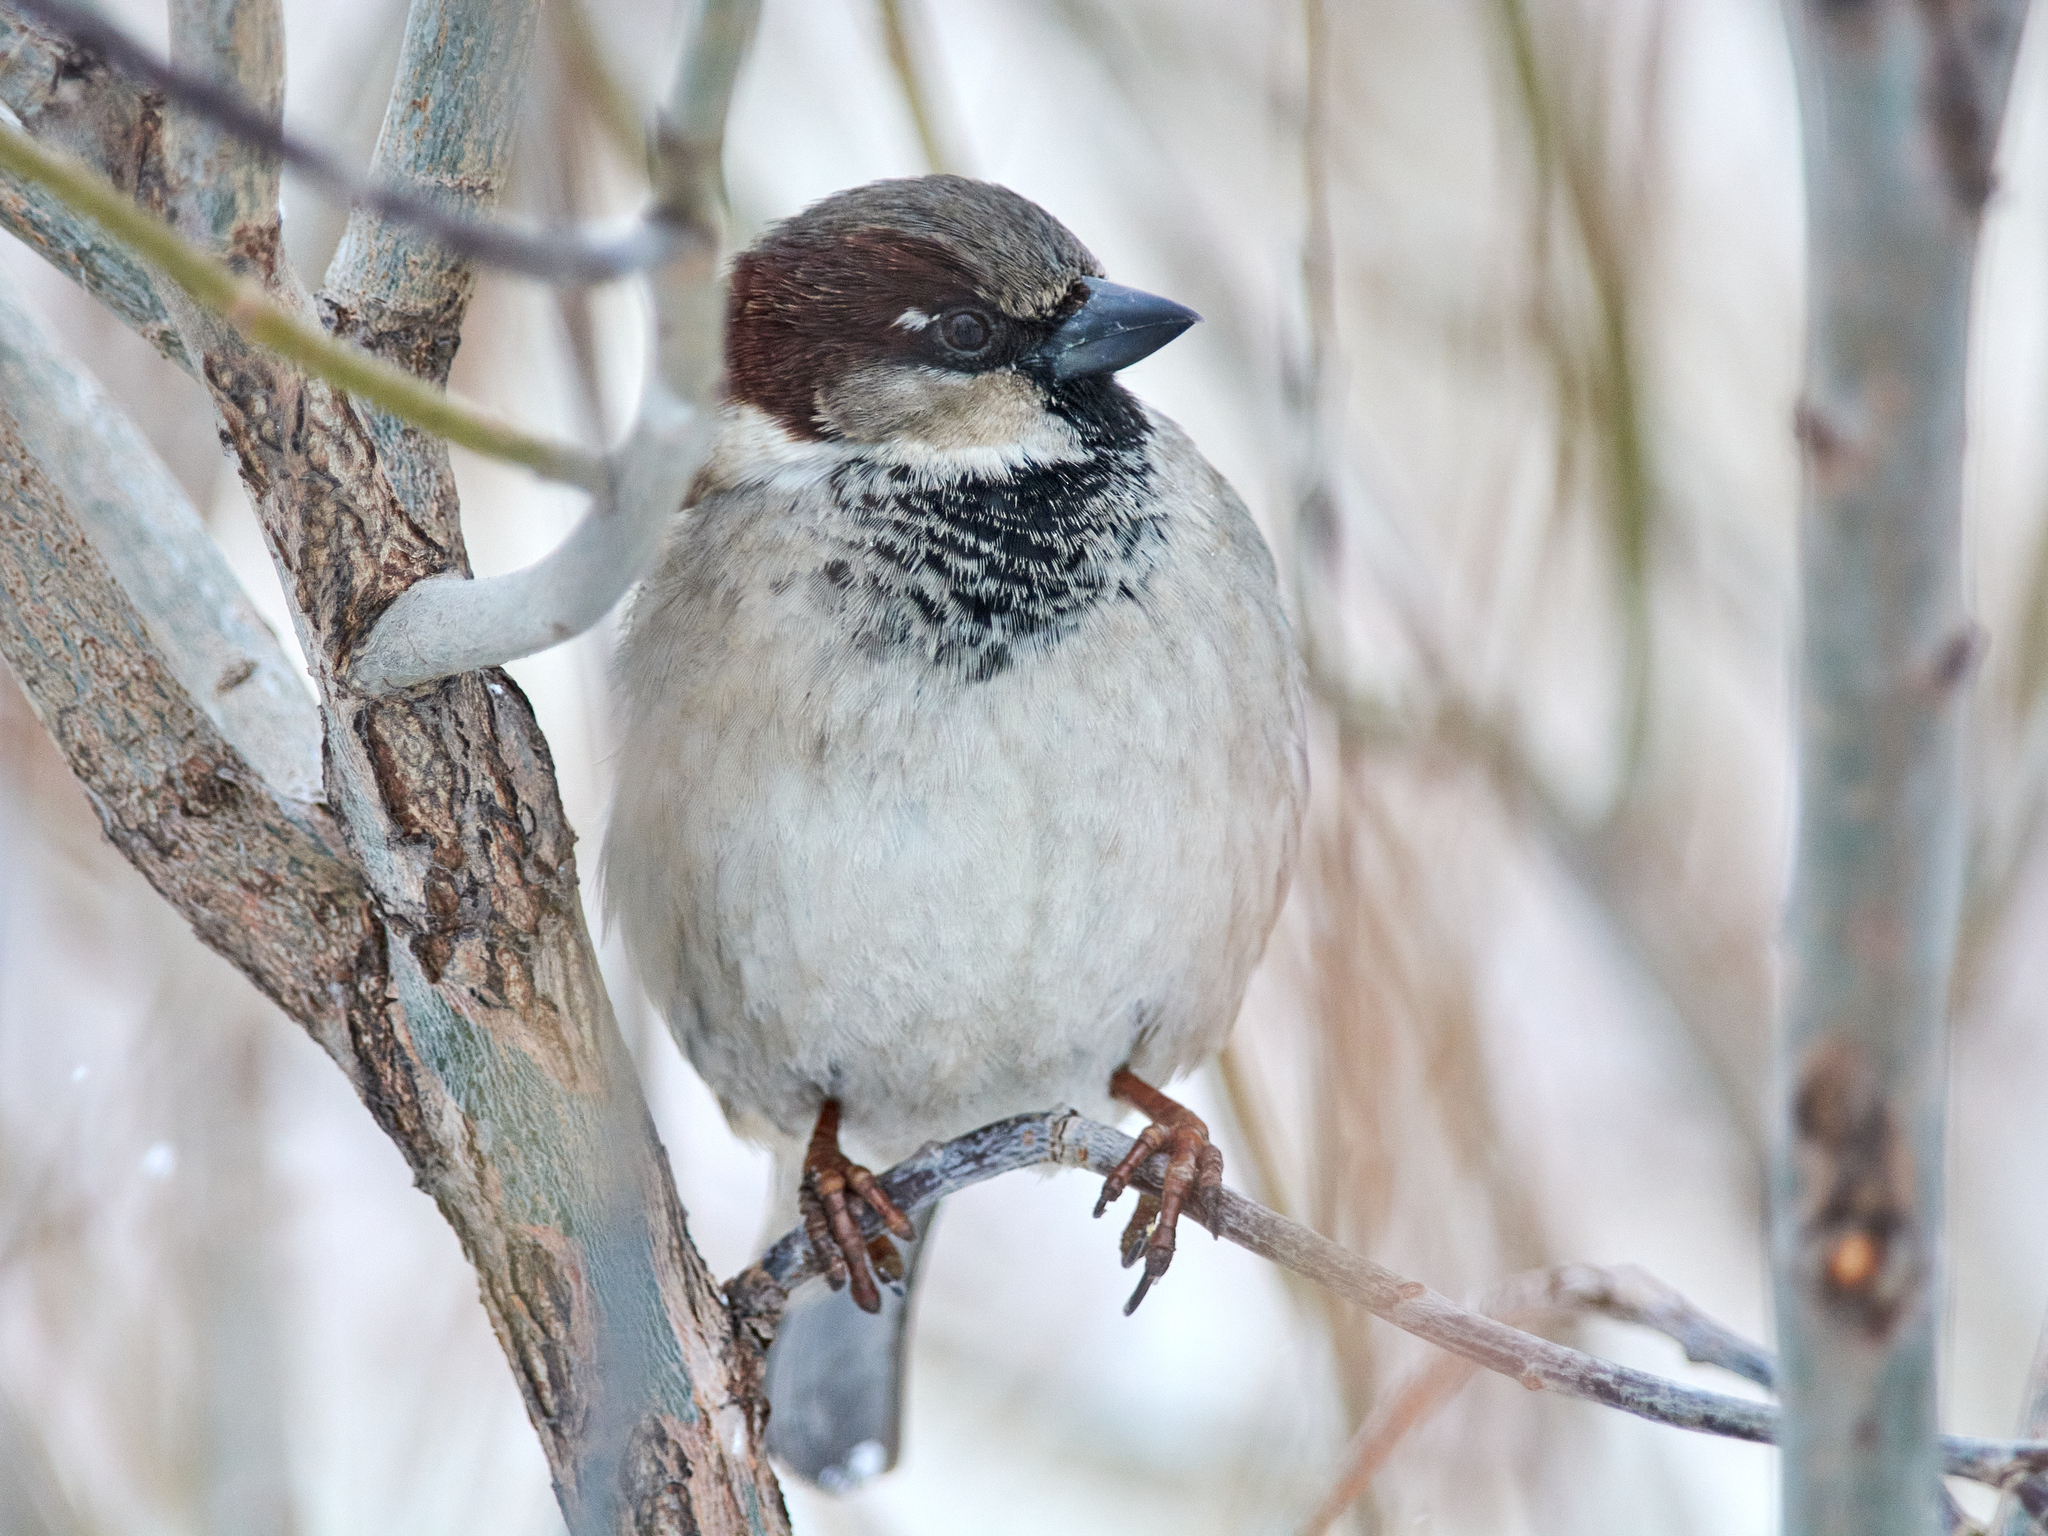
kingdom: Animalia
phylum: Chordata
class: Aves
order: Passeriformes
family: Passeridae
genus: Passer
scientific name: Passer domesticus
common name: House sparrow
